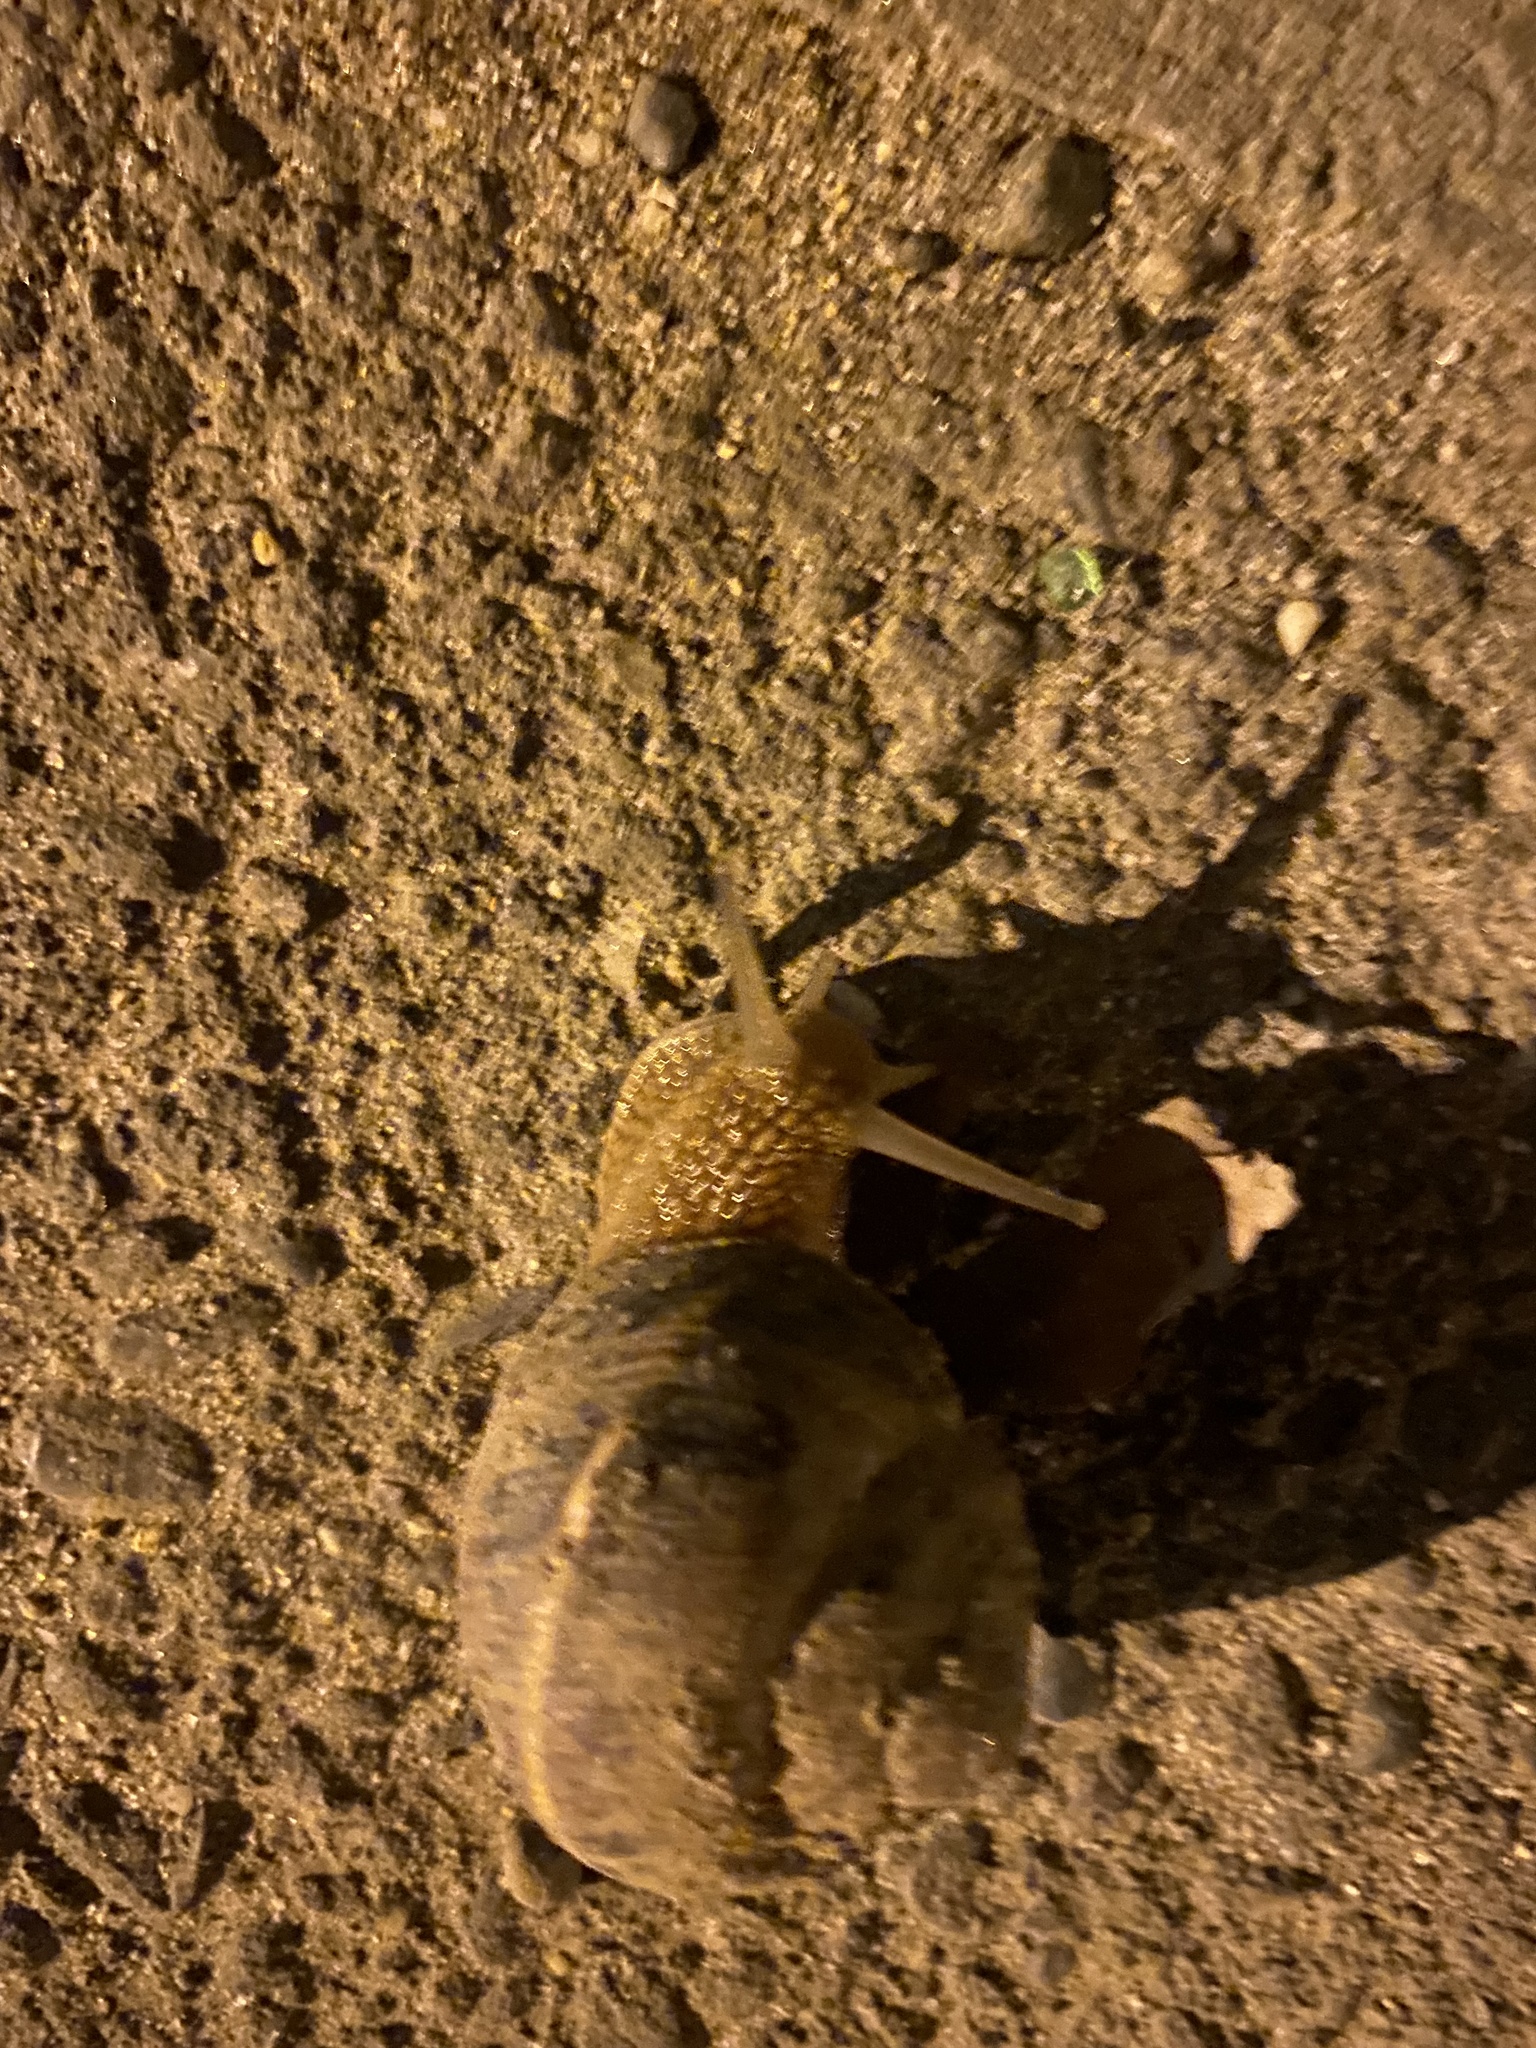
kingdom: Animalia
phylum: Mollusca
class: Gastropoda
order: Stylommatophora
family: Helicidae
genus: Helix
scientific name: Helix lucorum
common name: Turkish snail
